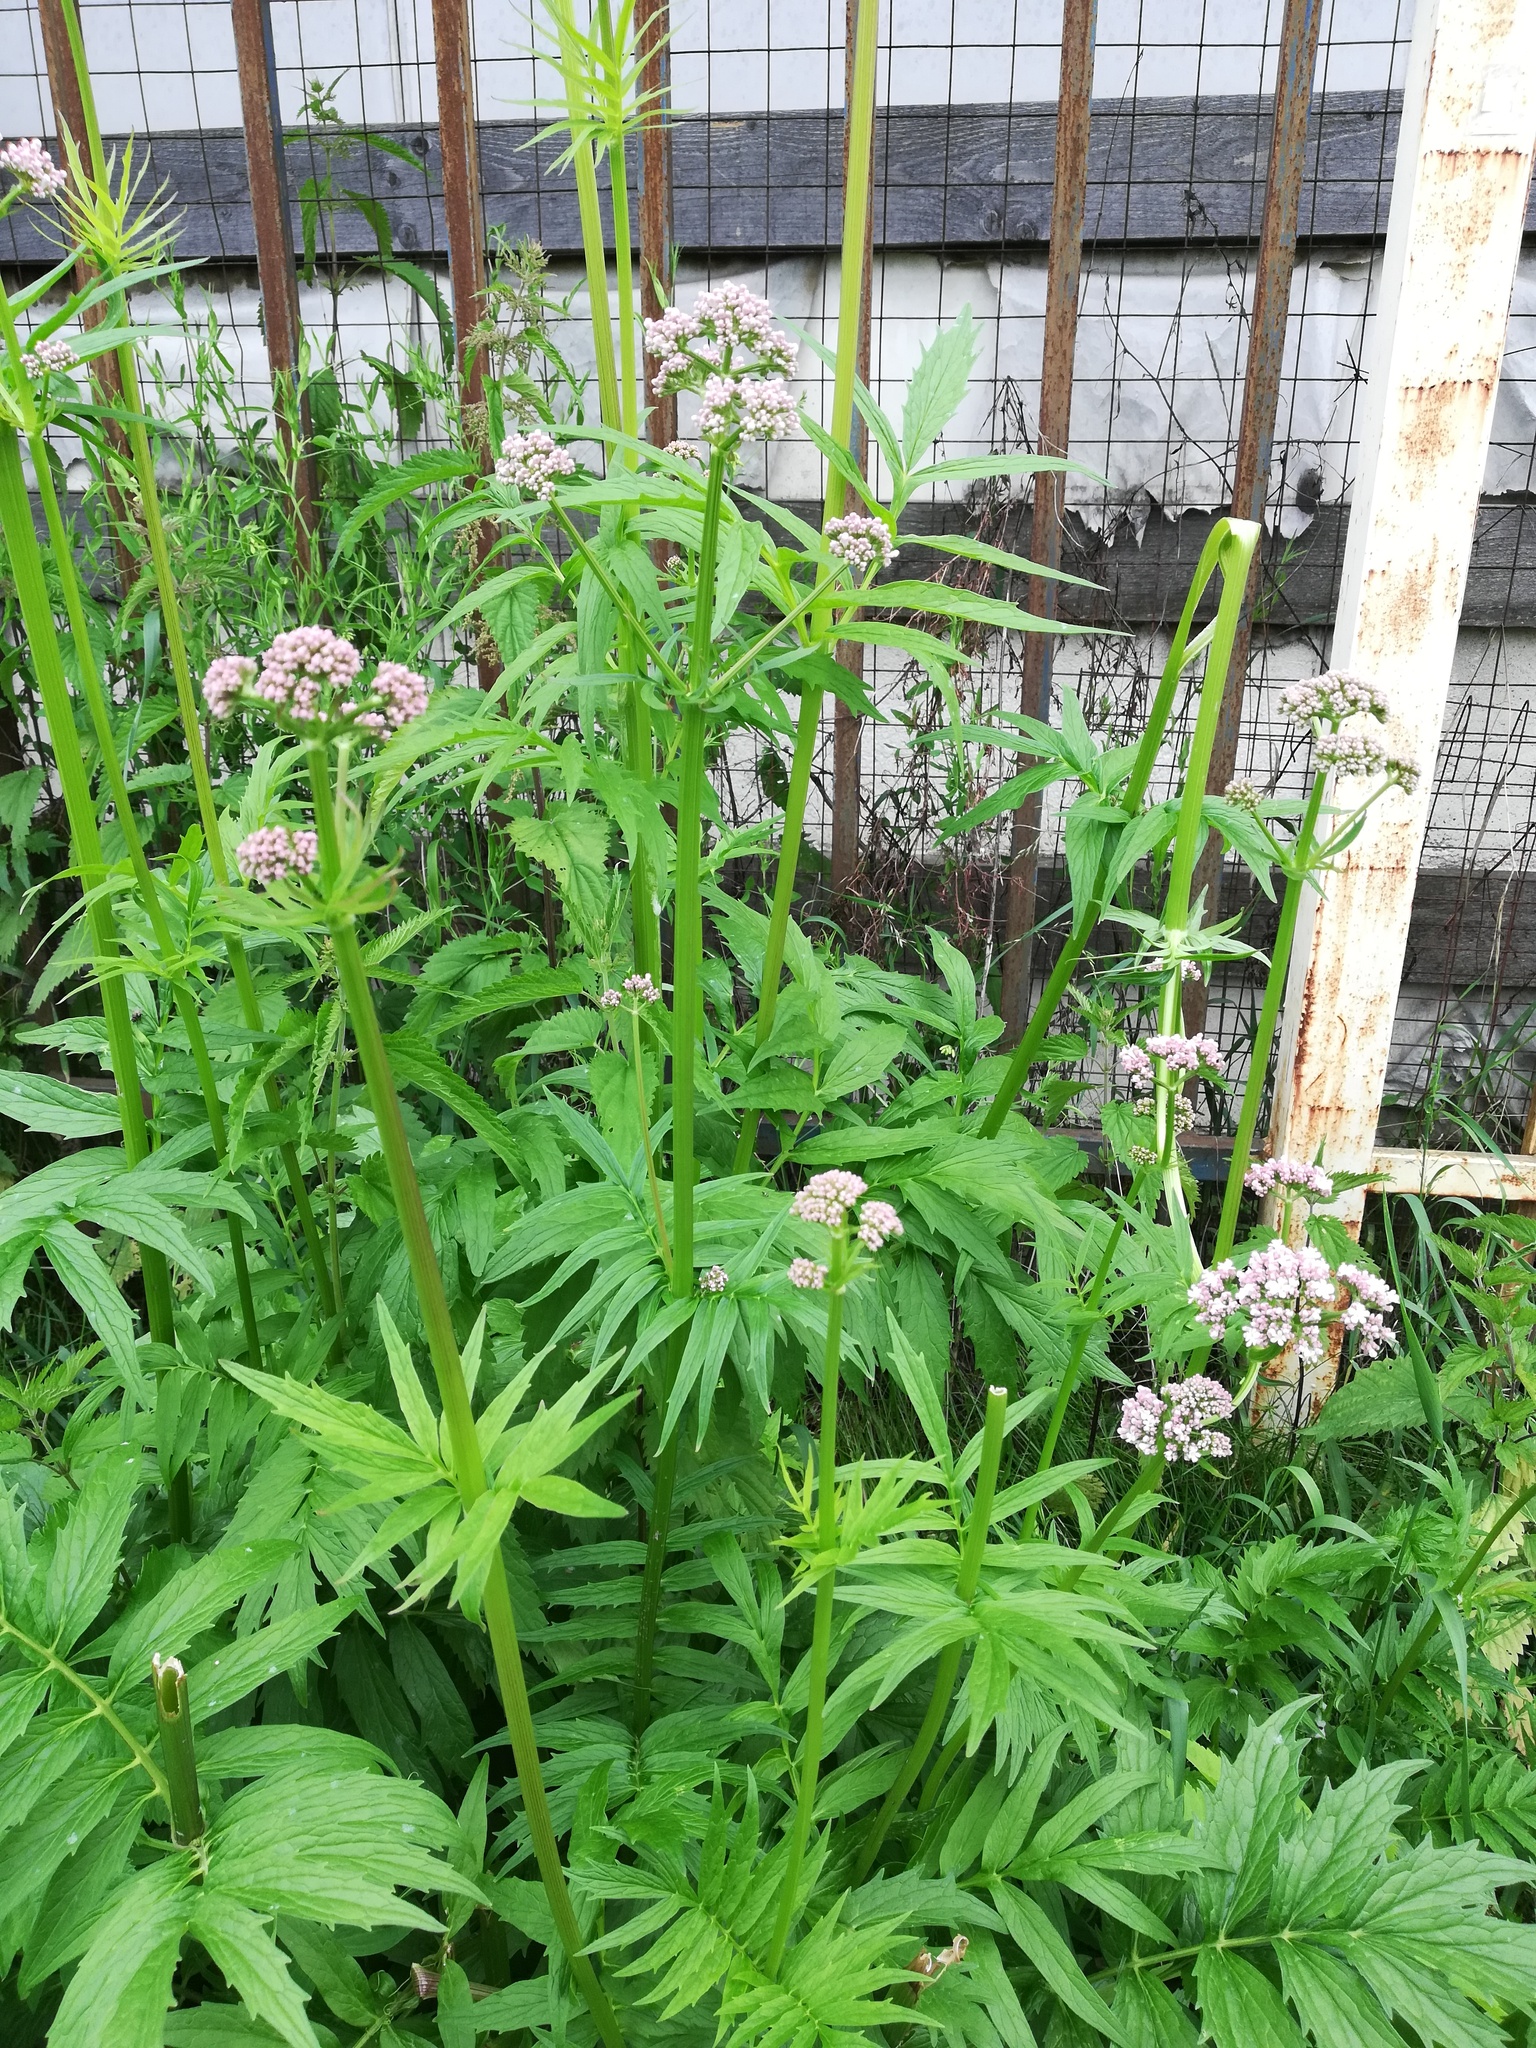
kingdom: Plantae
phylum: Tracheophyta
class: Magnoliopsida
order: Dipsacales
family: Caprifoliaceae
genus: Valeriana
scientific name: Valeriana wolgensis
